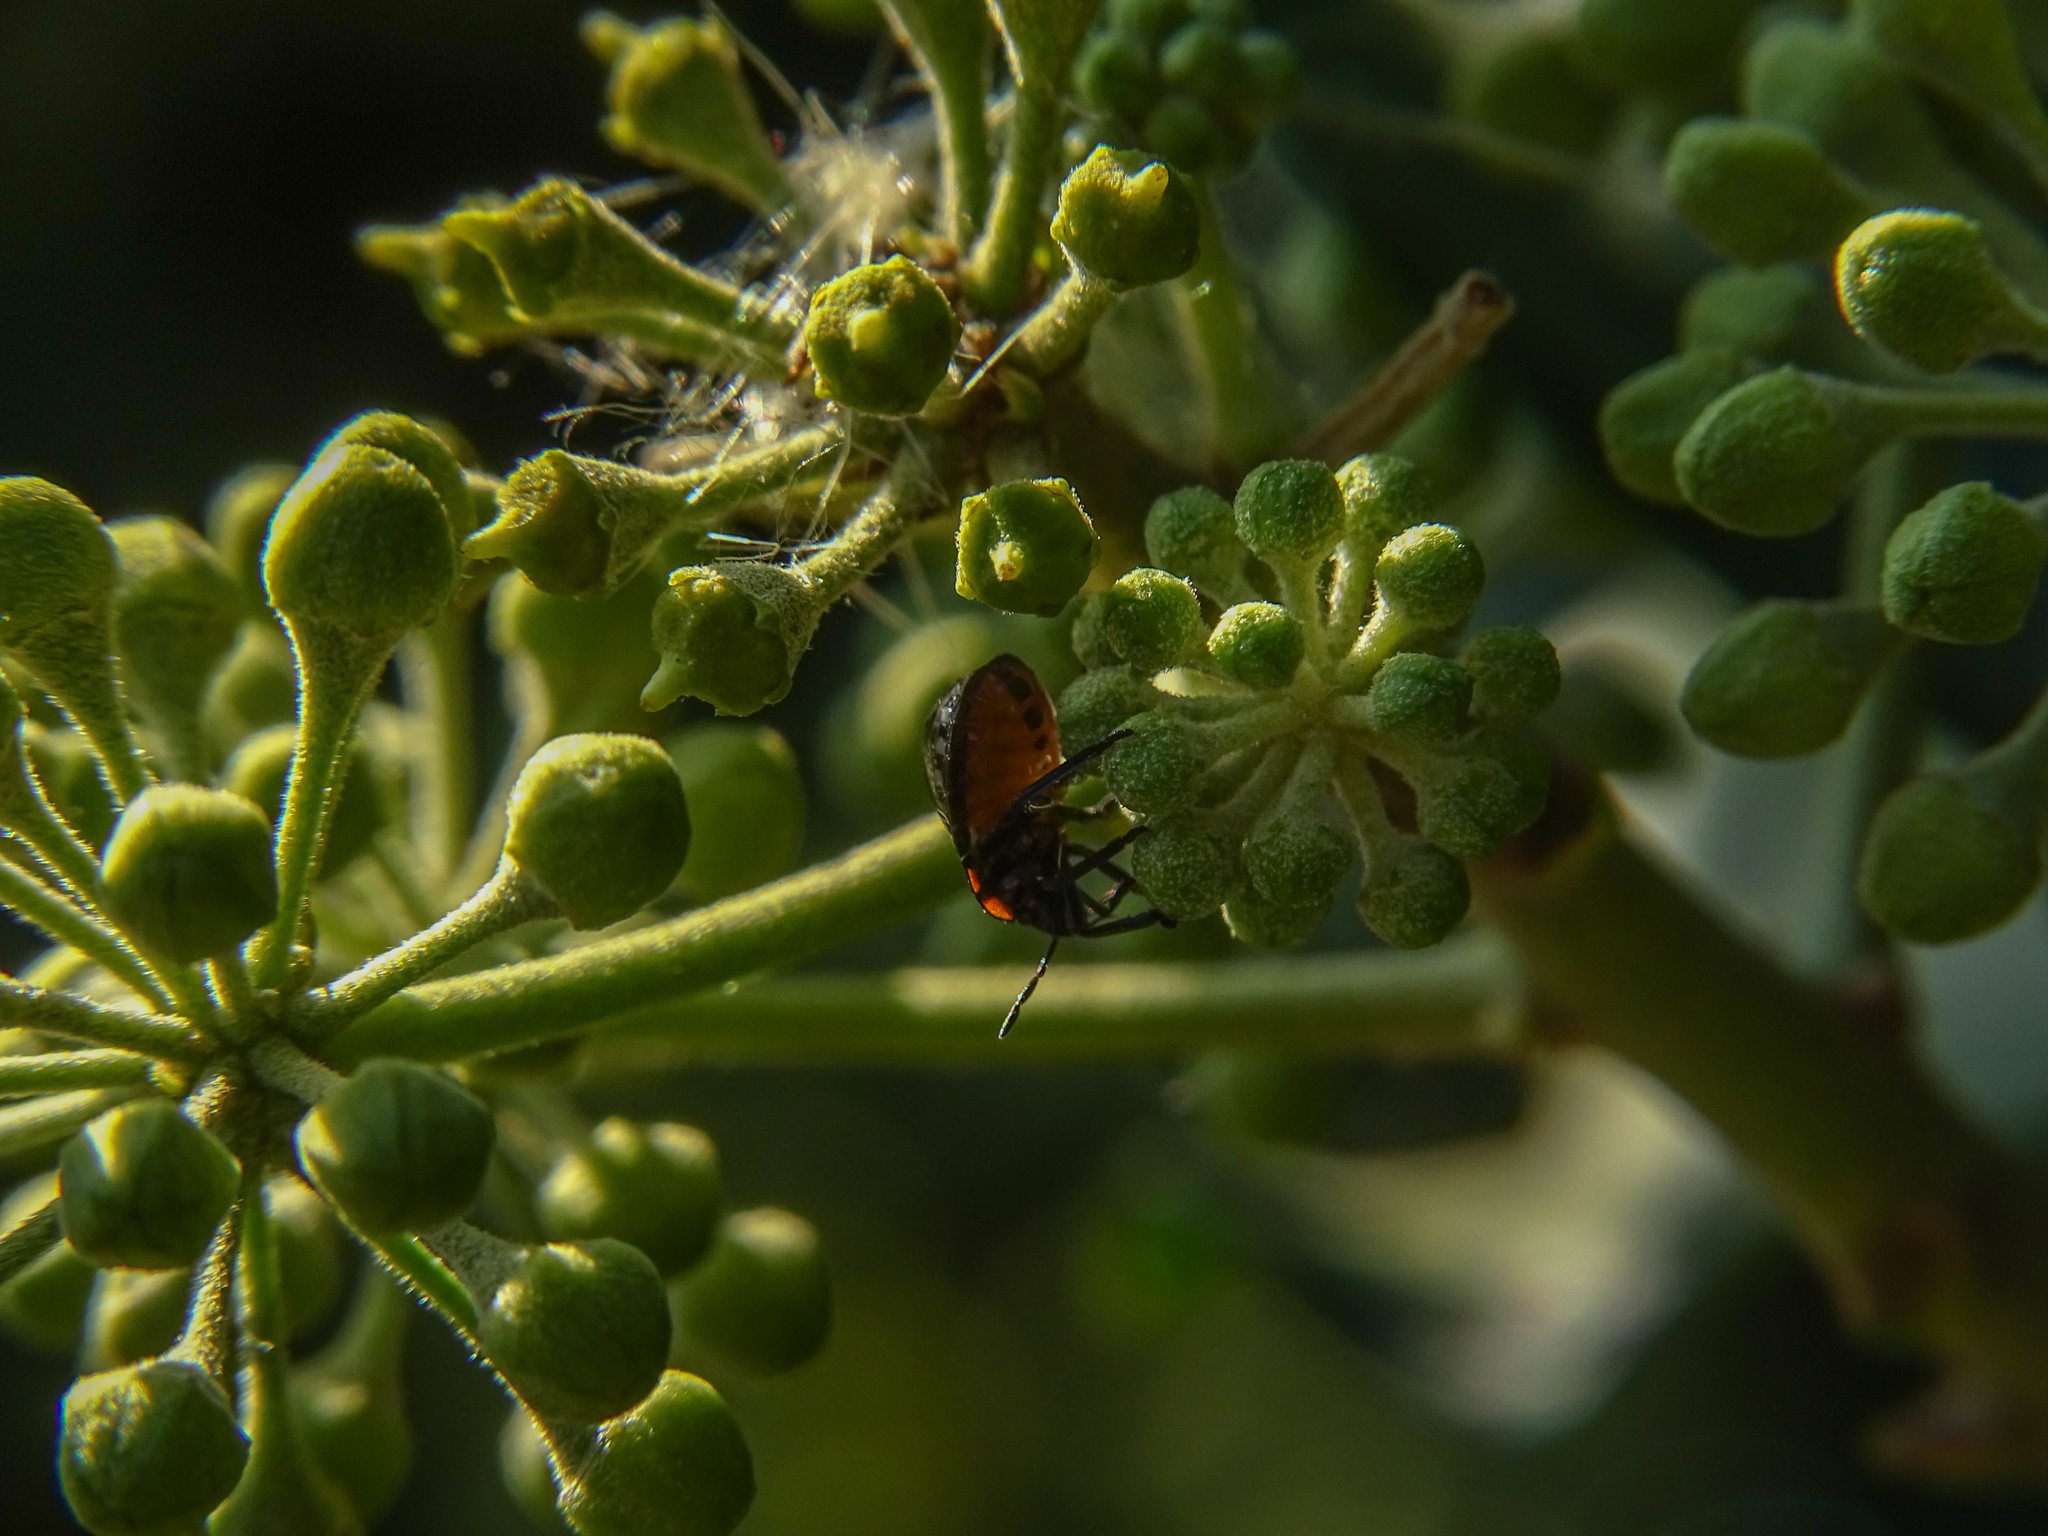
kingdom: Animalia
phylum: Arthropoda
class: Insecta
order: Hemiptera
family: Pentatomidae
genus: Nezara
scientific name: Nezara viridula
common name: Southern green stink bug
